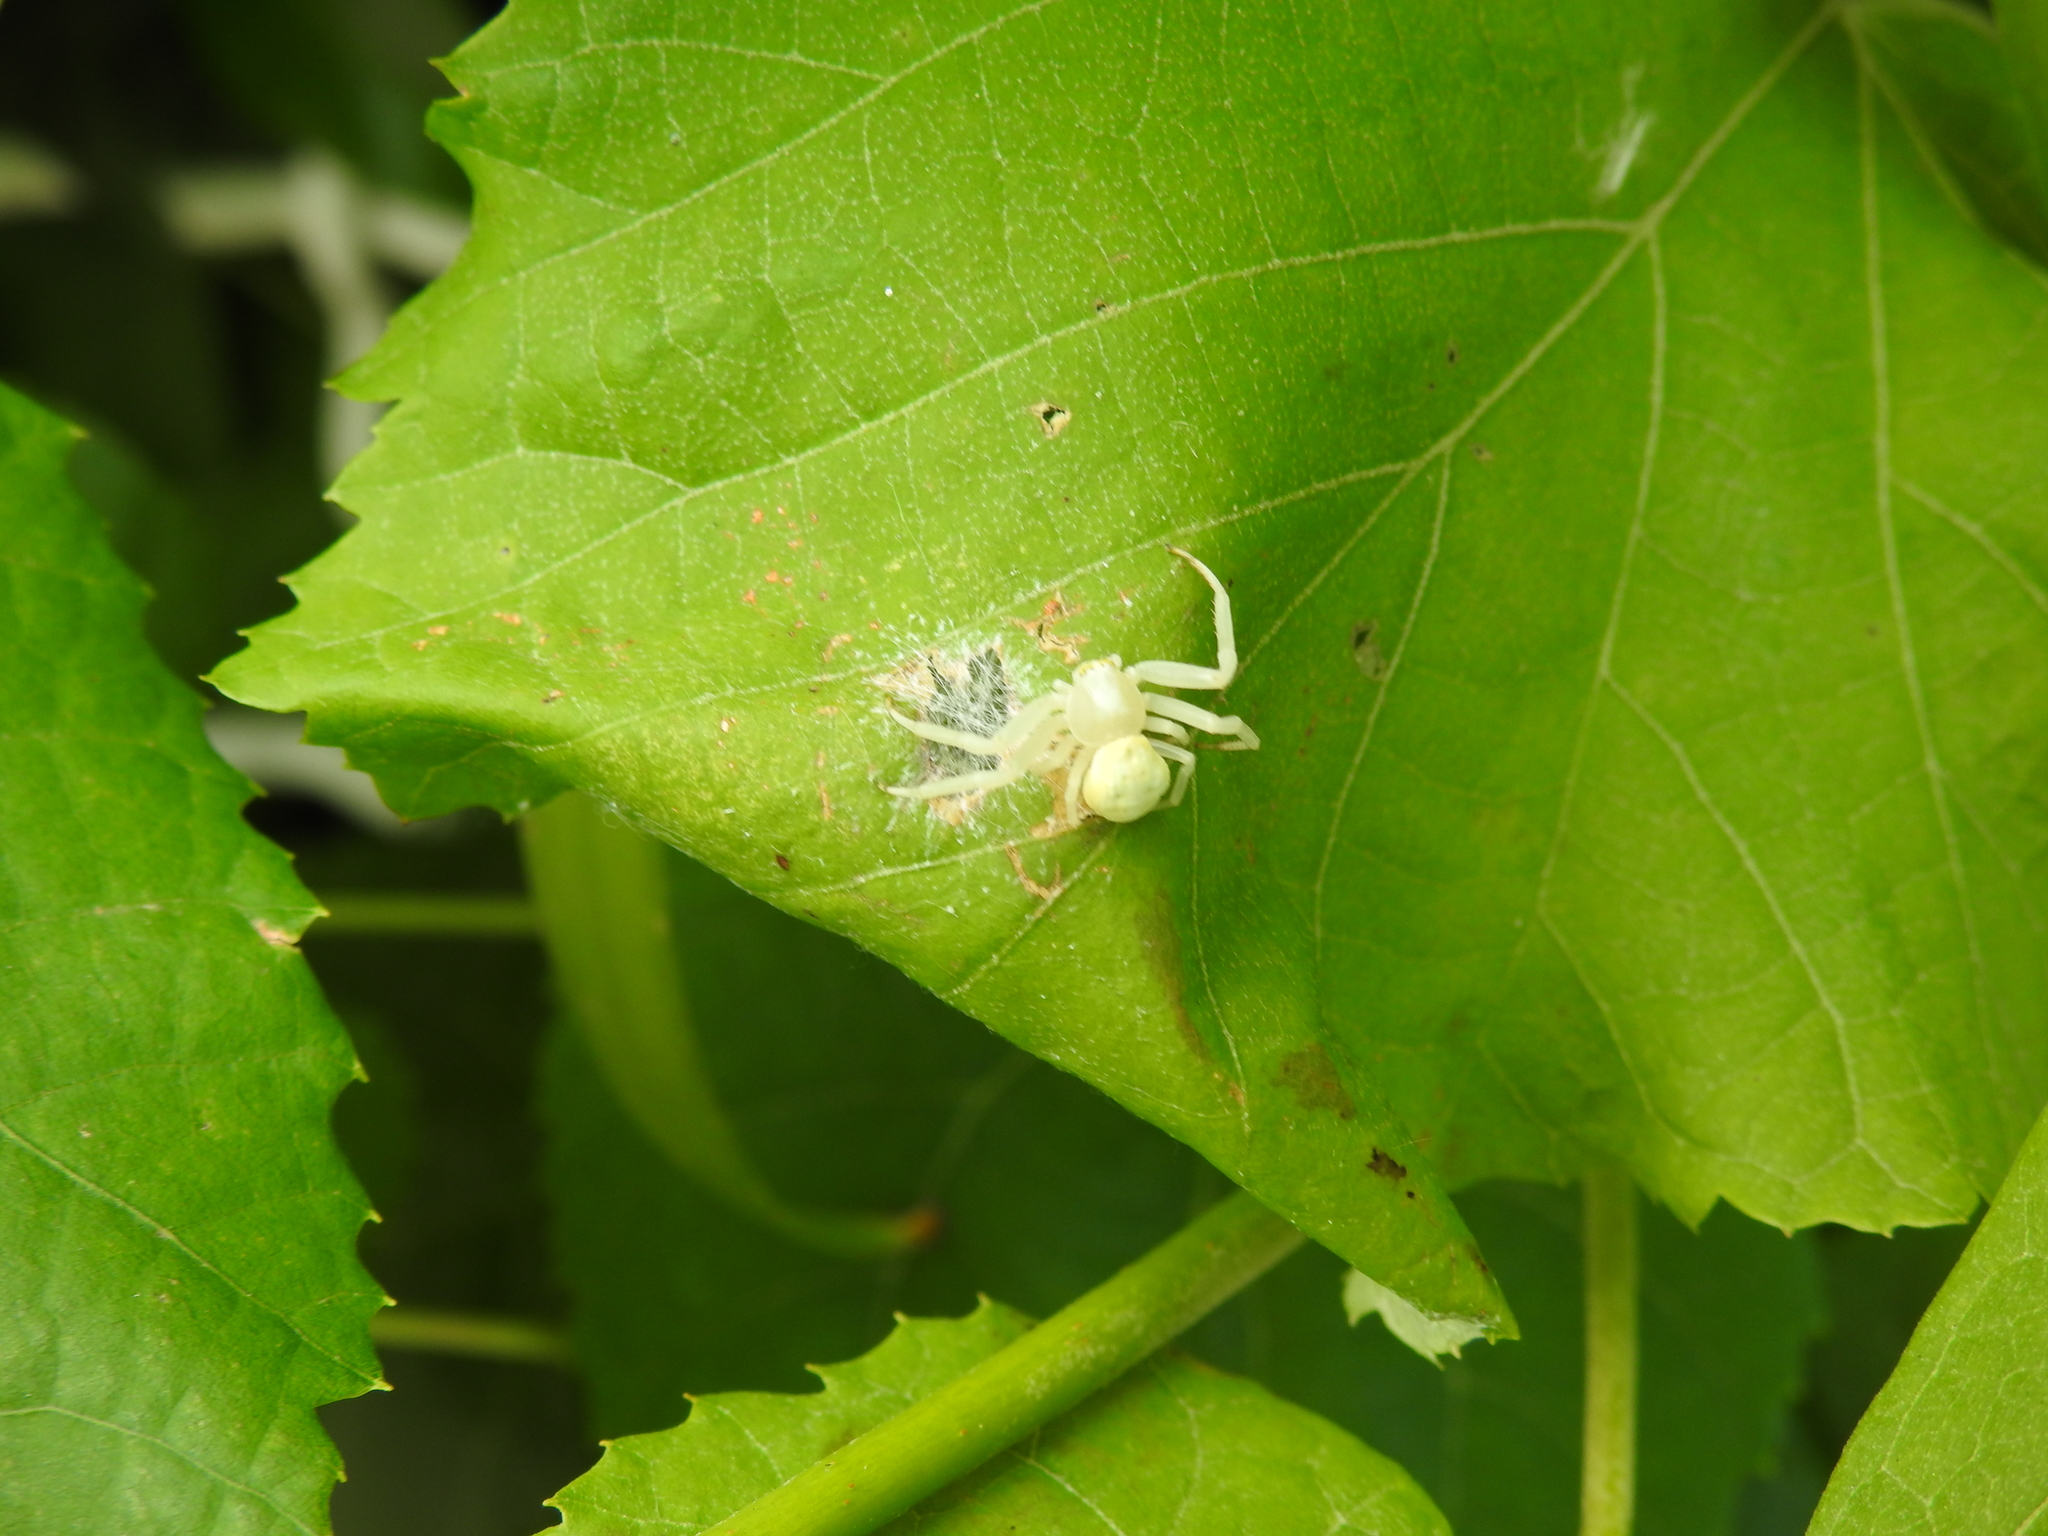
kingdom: Animalia
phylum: Arthropoda
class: Arachnida
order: Araneae
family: Thomisidae
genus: Misumena
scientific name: Misumena vatia
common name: Goldenrod crab spider
